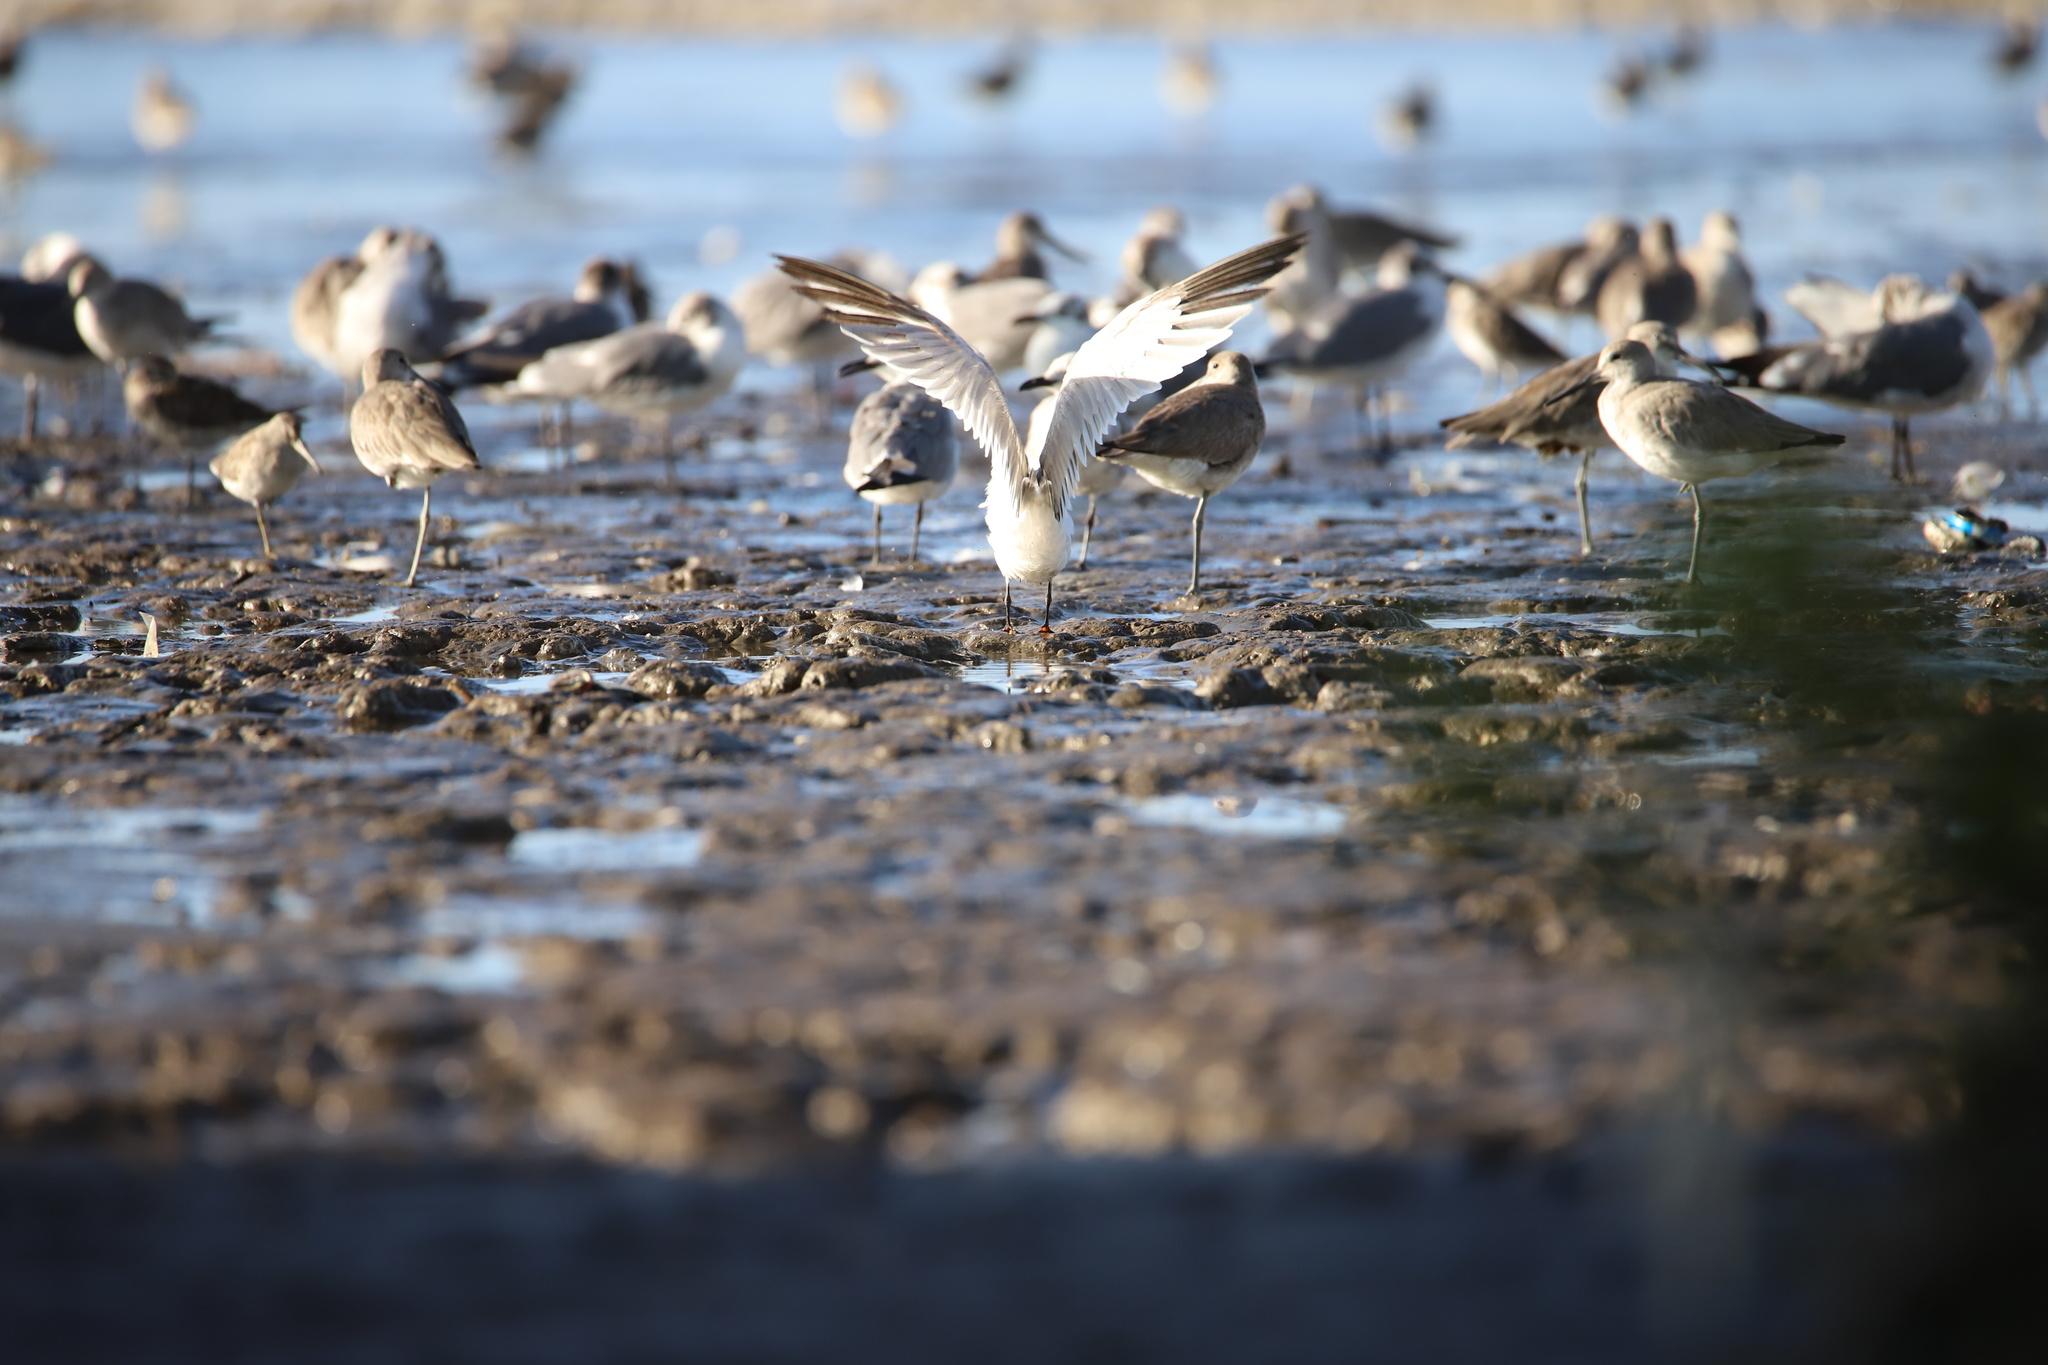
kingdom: Animalia
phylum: Chordata
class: Aves
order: Charadriiformes
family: Laridae
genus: Thalasseus
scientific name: Thalasseus elegans
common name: Elegant tern
